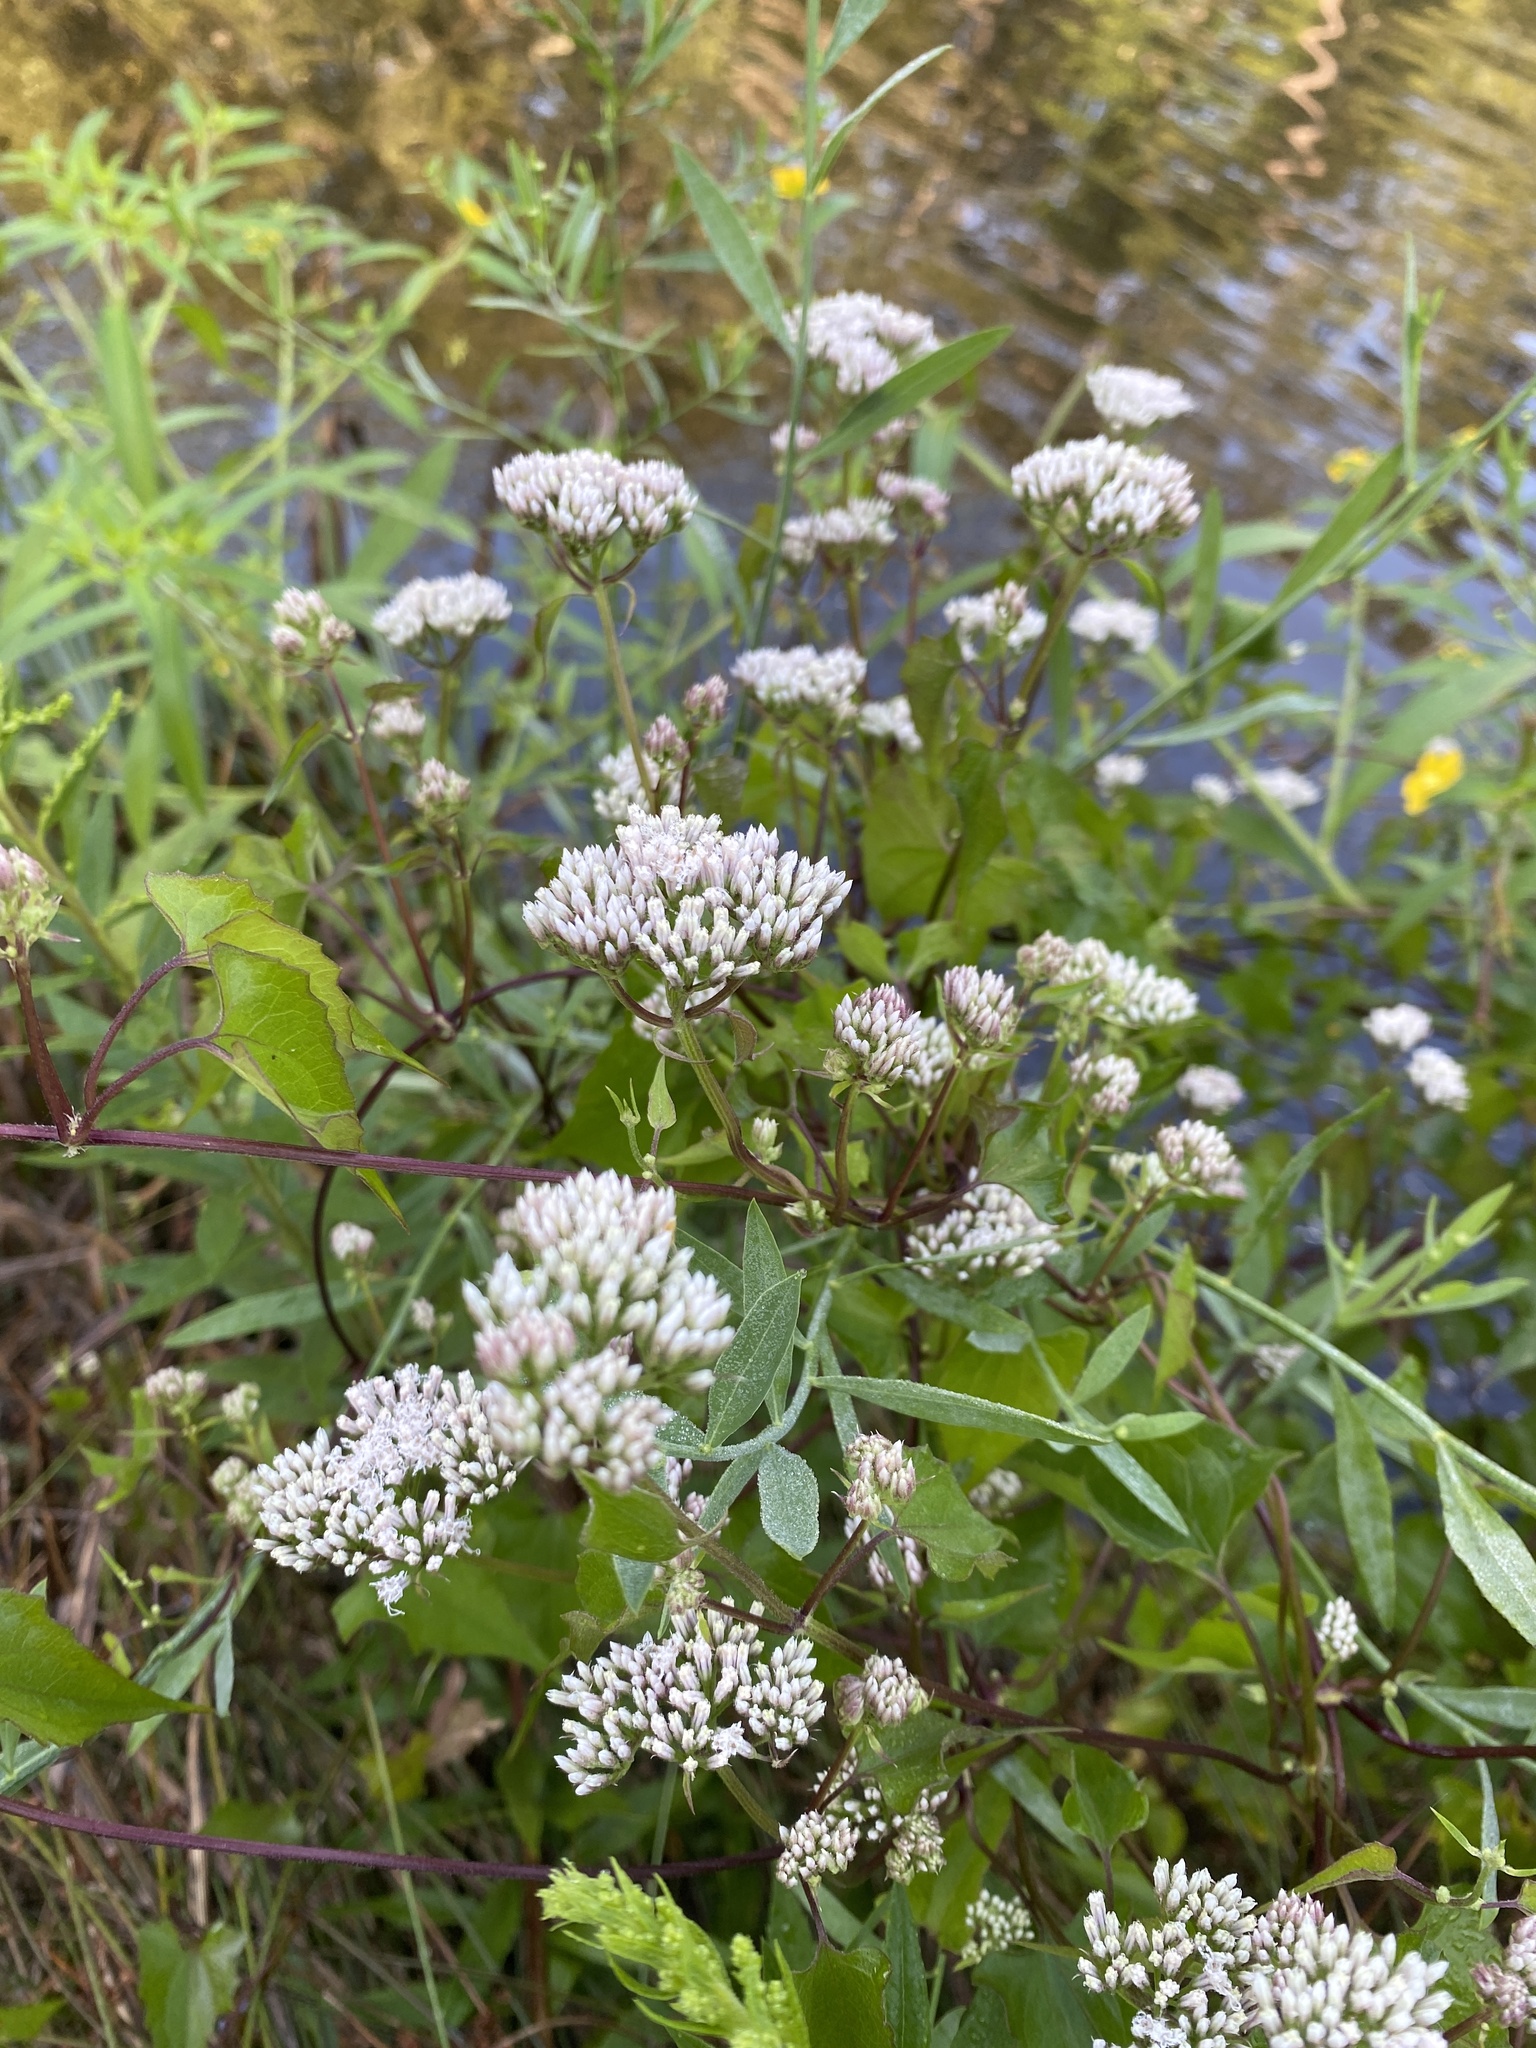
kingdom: Plantae
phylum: Tracheophyta
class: Magnoliopsida
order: Asterales
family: Asteraceae
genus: Mikania
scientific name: Mikania scandens
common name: Climbing hempvine
